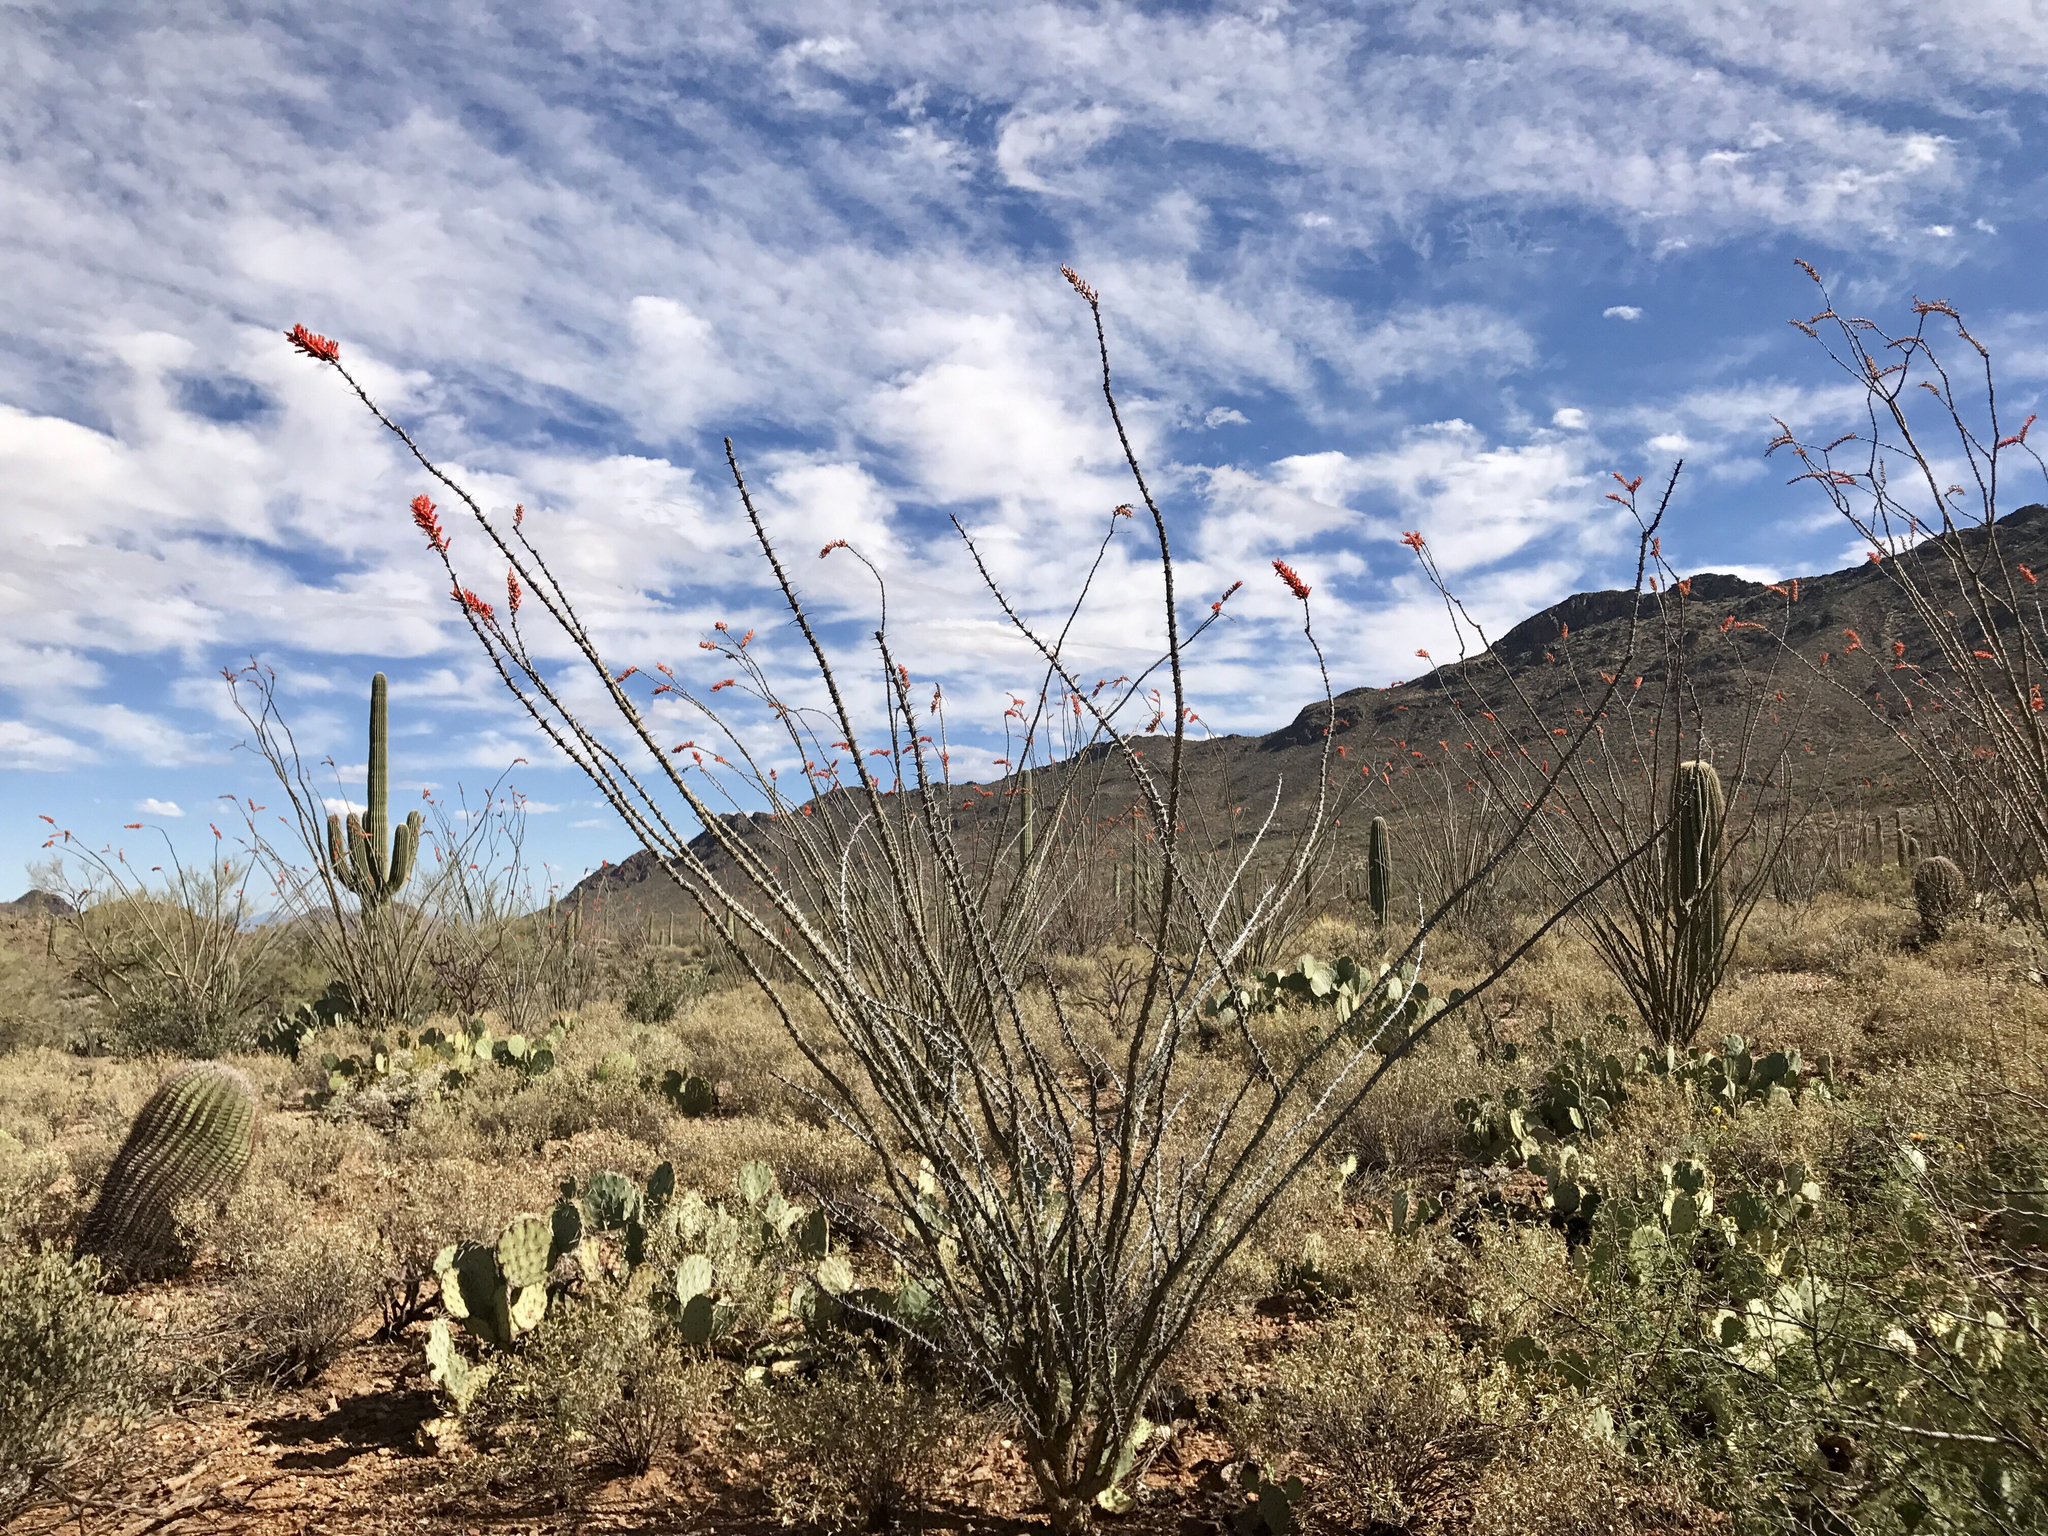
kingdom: Plantae
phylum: Tracheophyta
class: Magnoliopsida
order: Ericales
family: Fouquieriaceae
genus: Fouquieria
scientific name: Fouquieria splendens
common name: Vine-cactus
